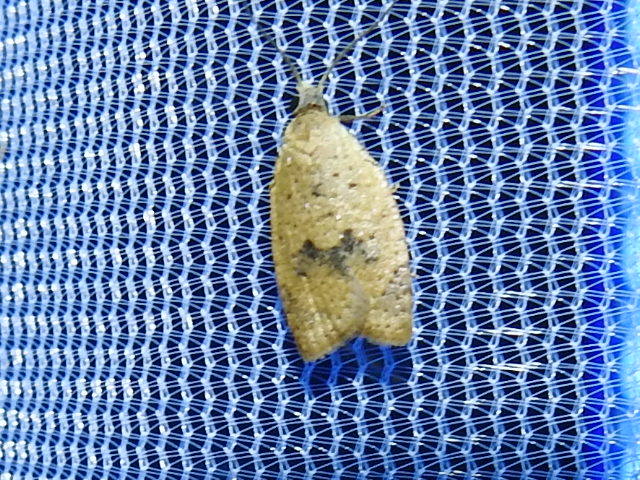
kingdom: Animalia
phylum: Arthropoda
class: Insecta
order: Lepidoptera
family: Tortricidae
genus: Sparganothoides
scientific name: Sparganothoides lentiginosana
